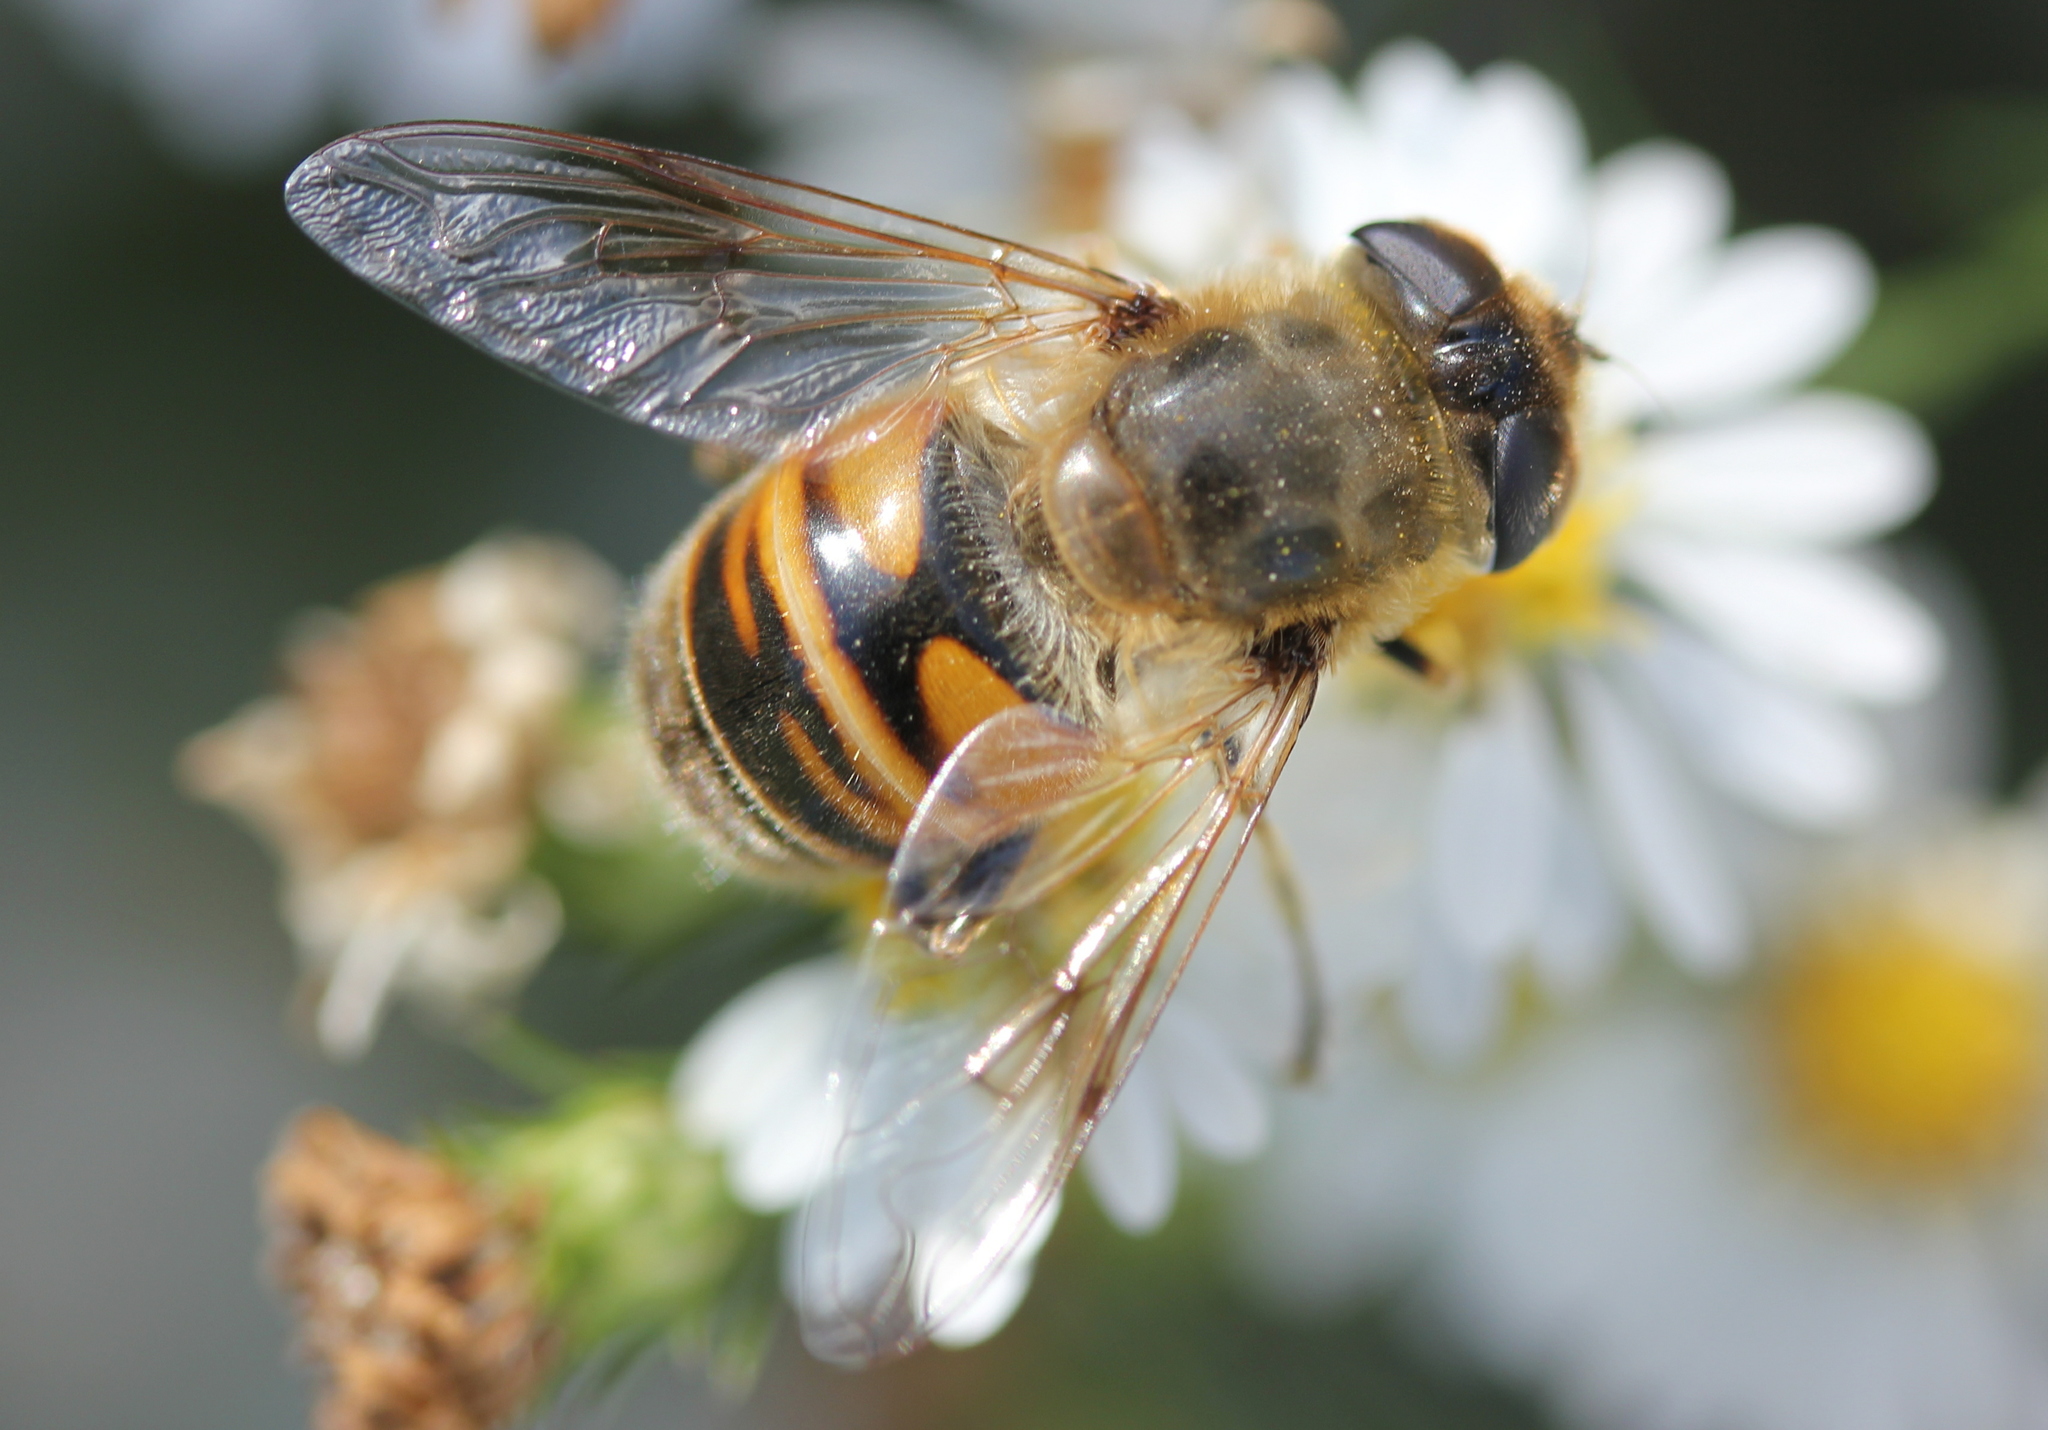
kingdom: Animalia
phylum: Arthropoda
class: Insecta
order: Diptera
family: Syrphidae
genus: Eristalis
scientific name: Eristalis tenax
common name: Drone fly
